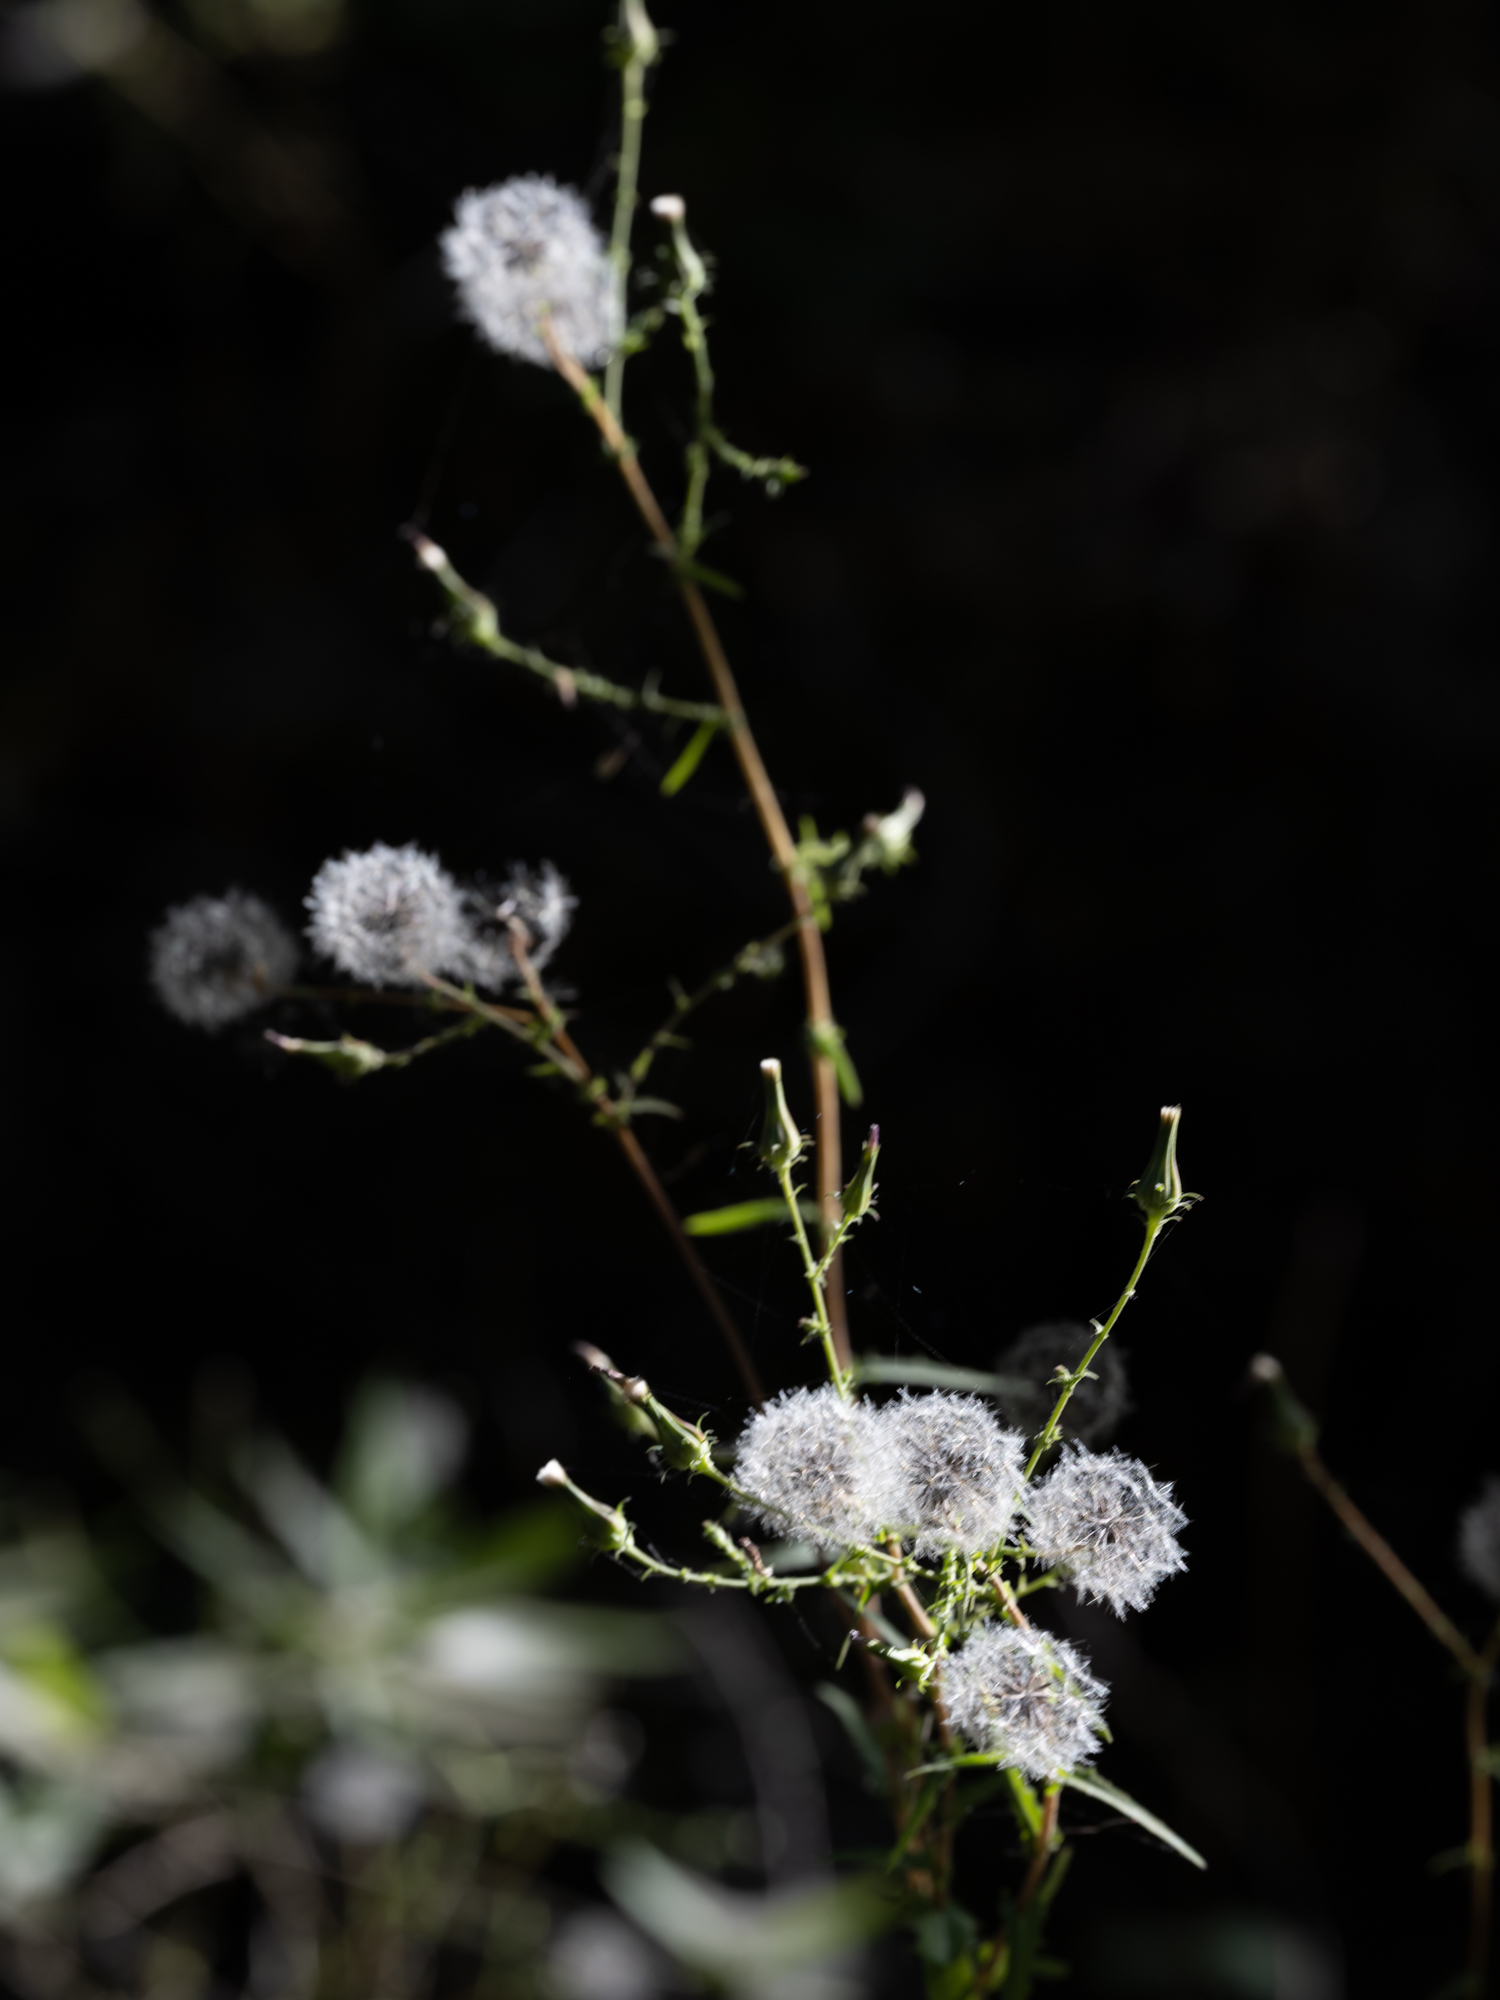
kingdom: Plantae
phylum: Tracheophyta
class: Magnoliopsida
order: Asterales
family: Asteraceae
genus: Lactuca
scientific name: Lactuca serriola
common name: Prickly lettuce
